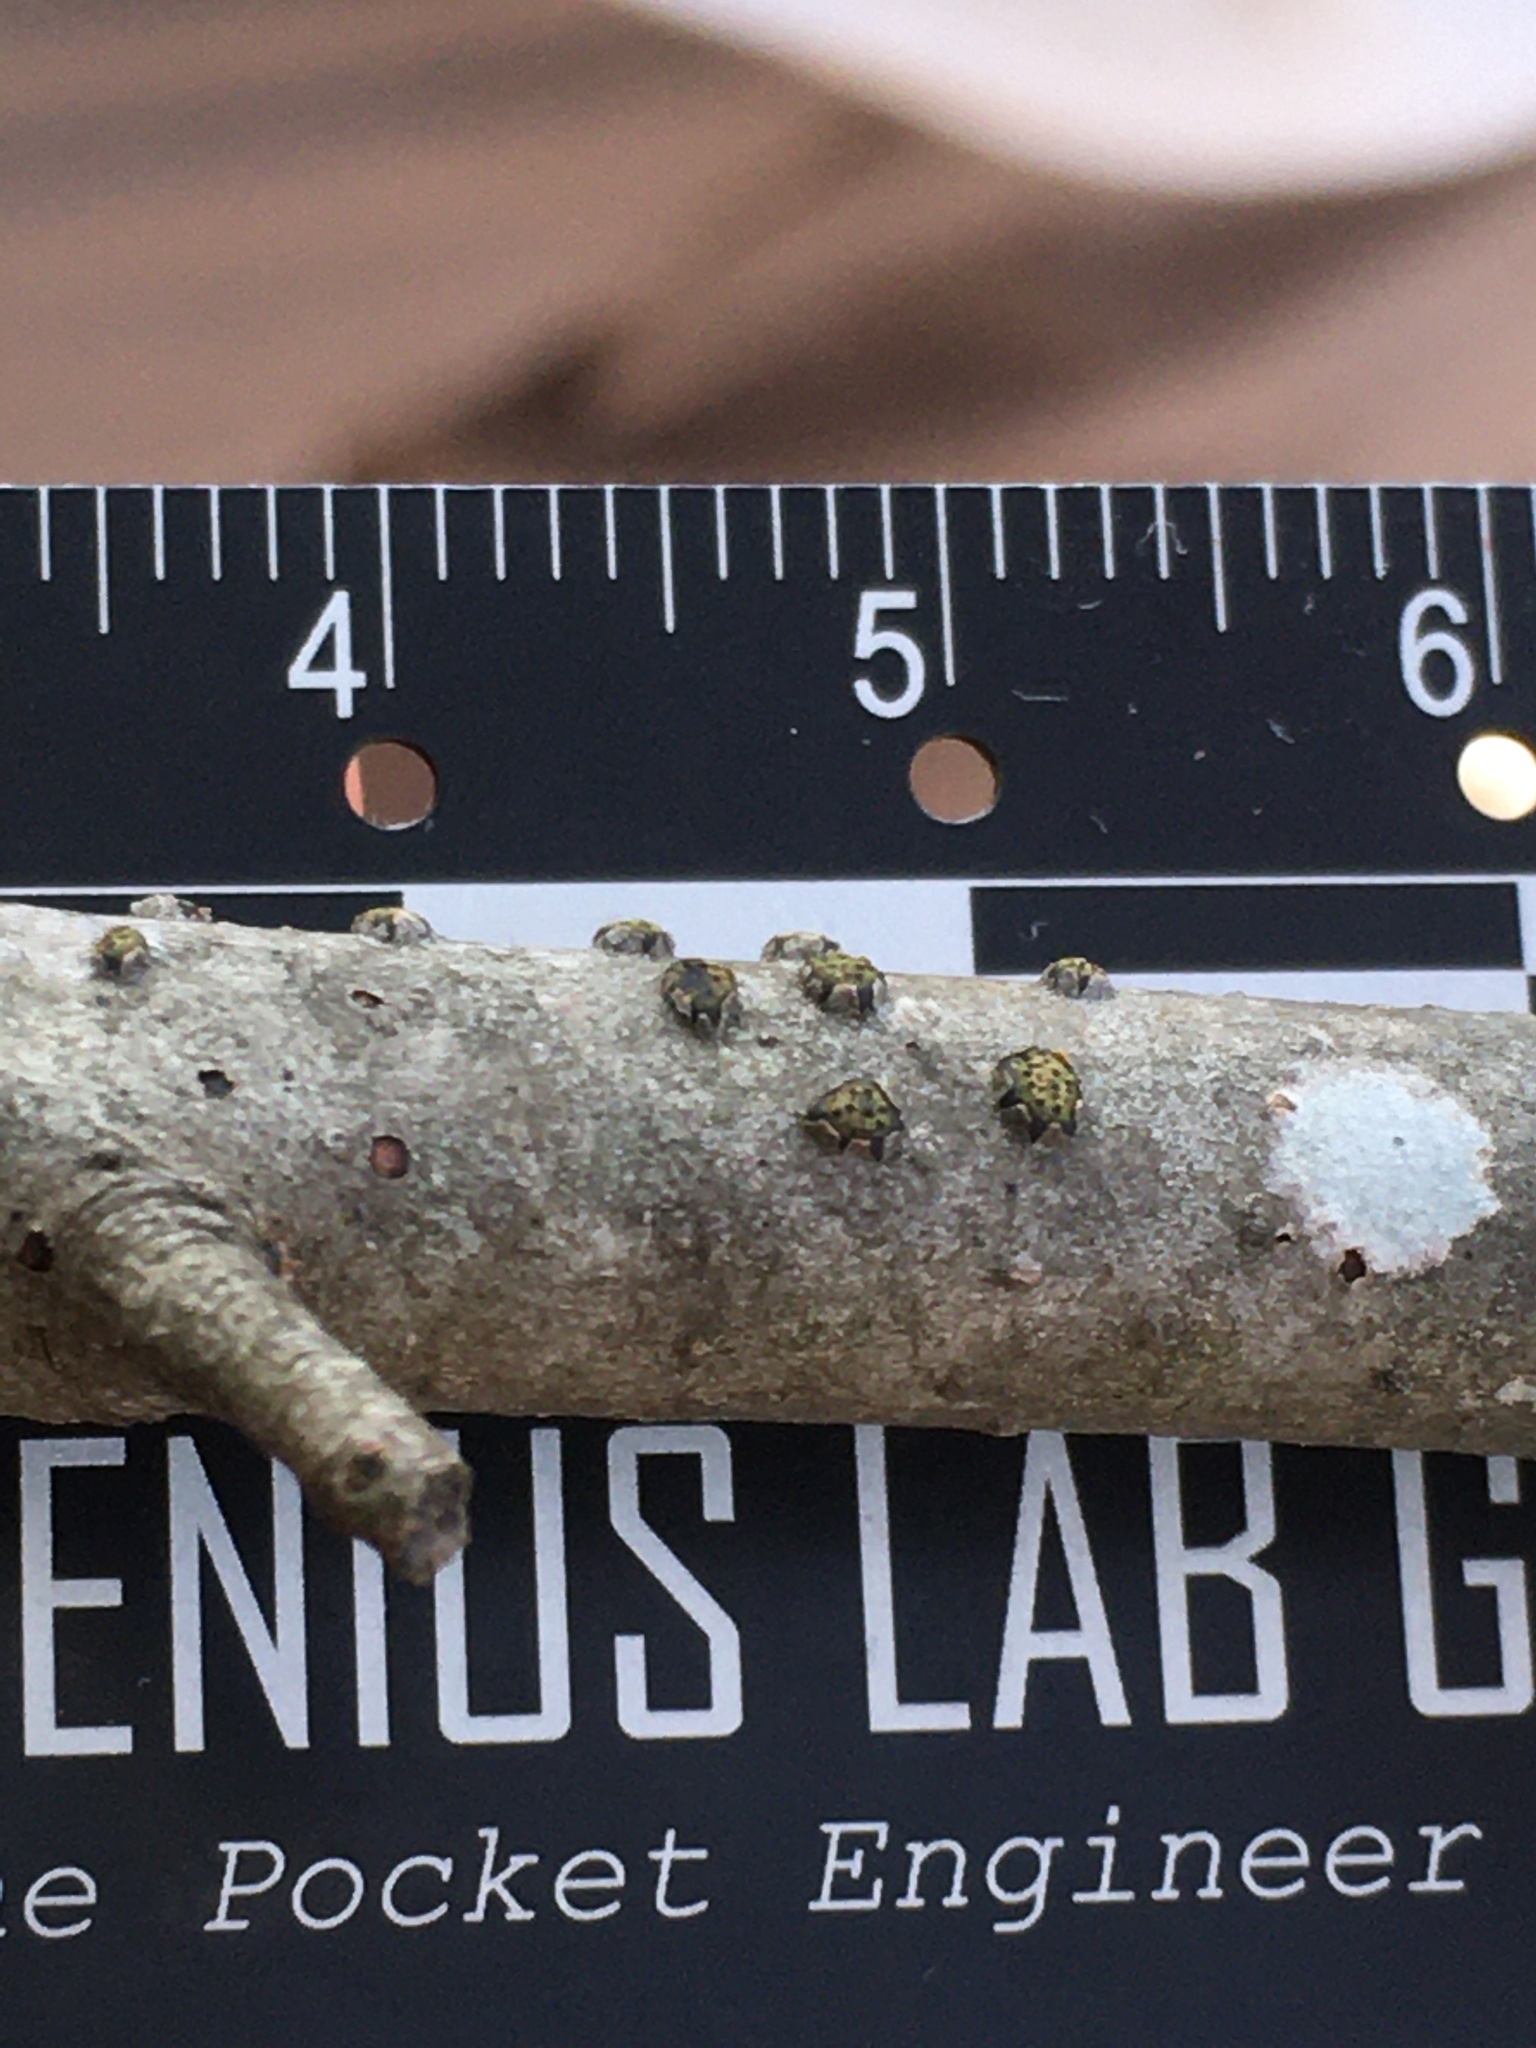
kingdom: Fungi
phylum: Ascomycota
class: Sordariomycetes
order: Xylariales
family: Diatrypaceae
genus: Diatrype
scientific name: Diatrype virescens
